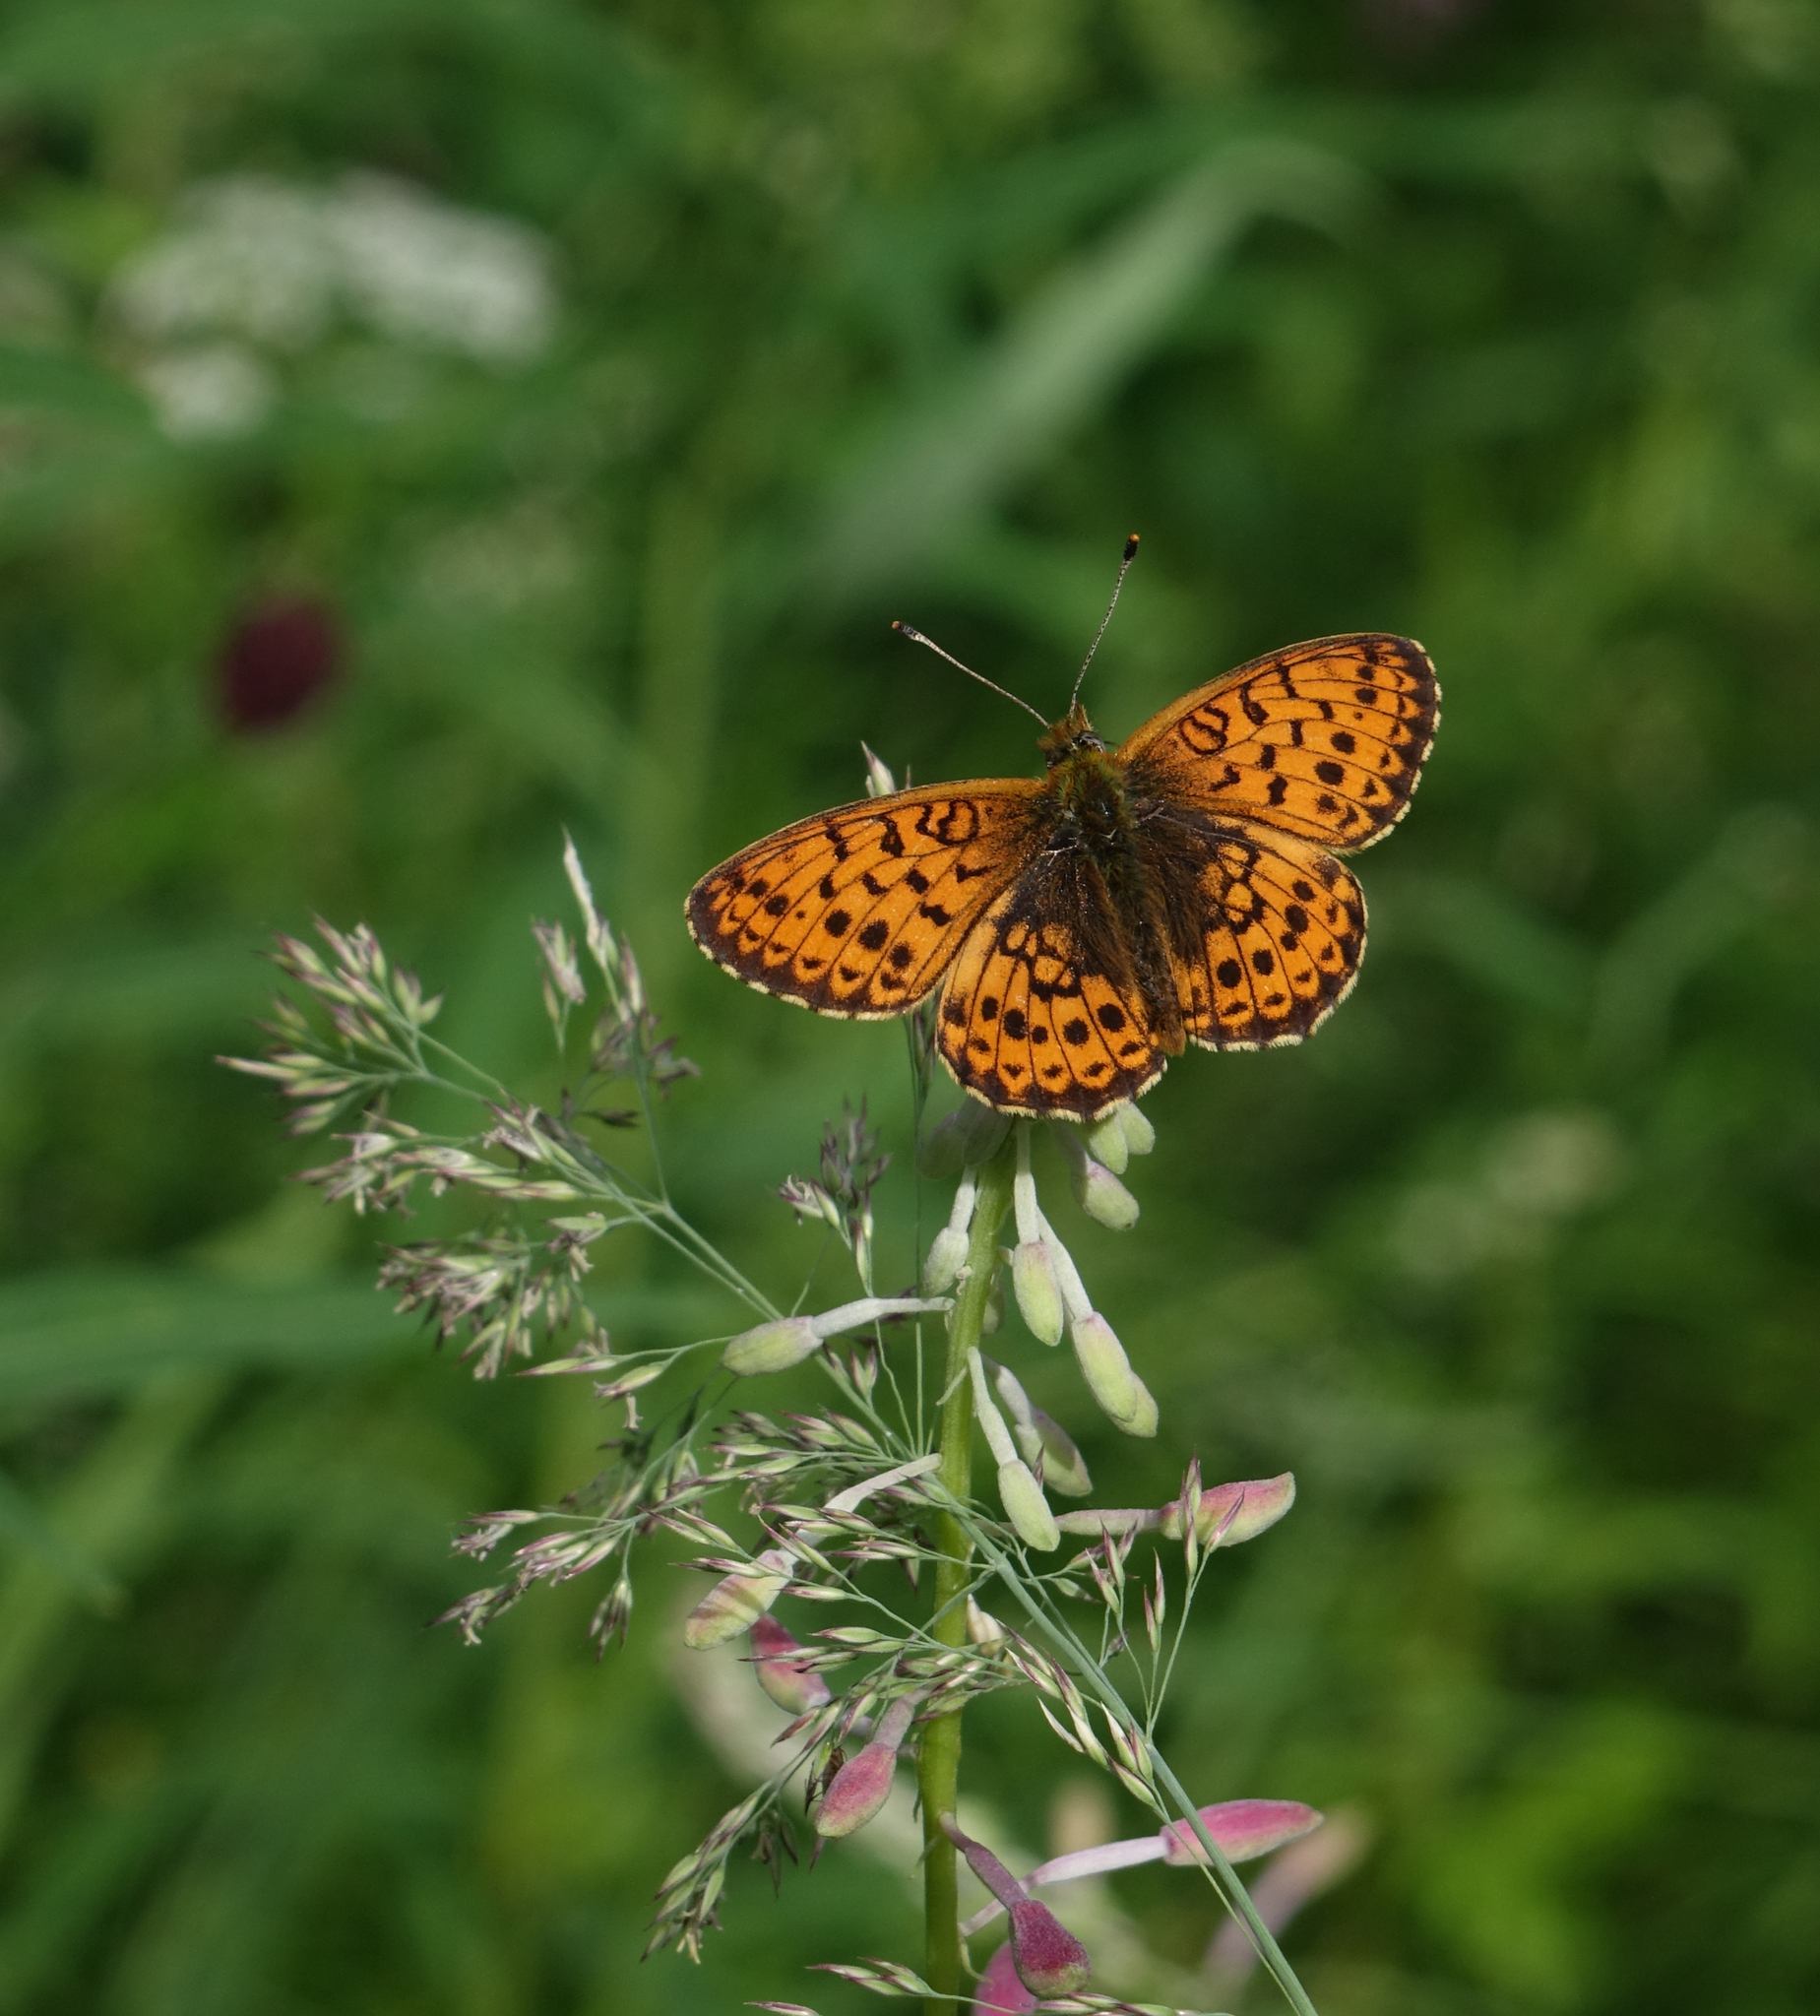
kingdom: Animalia
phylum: Arthropoda
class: Insecta
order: Lepidoptera
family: Nymphalidae
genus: Brenthis
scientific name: Brenthis ino
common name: Lesser marbled fritillary
